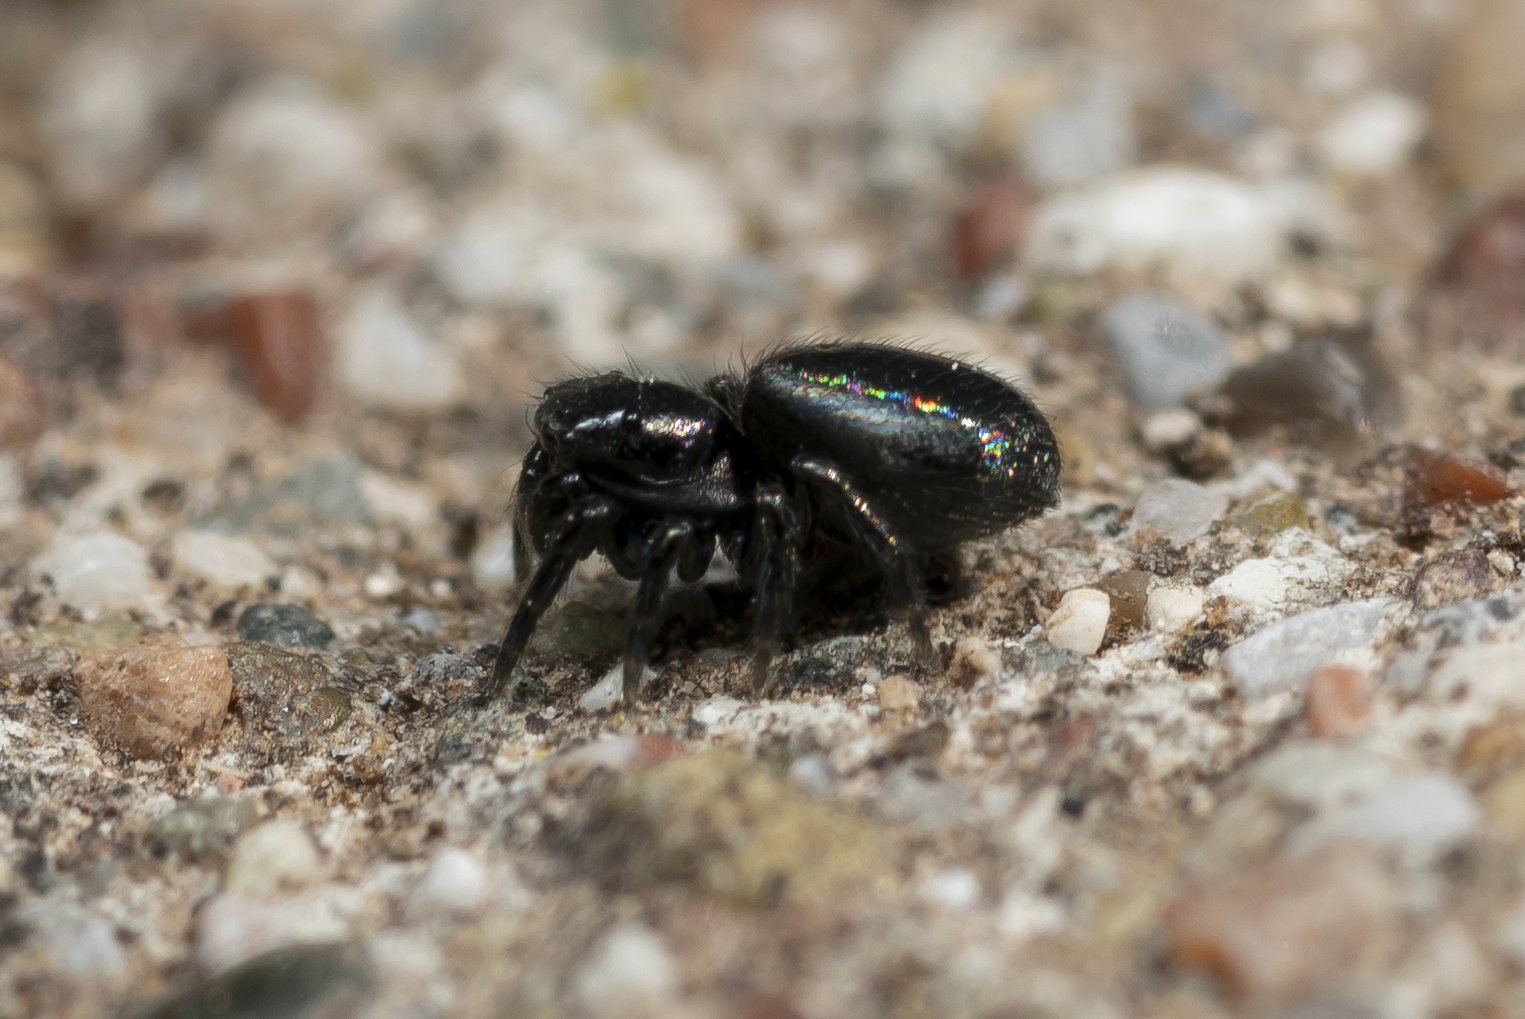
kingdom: Animalia
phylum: Arthropoda
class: Arachnida
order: Araneae
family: Salticidae
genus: Chalcoscirtus
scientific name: Chalcoscirtus infimus
